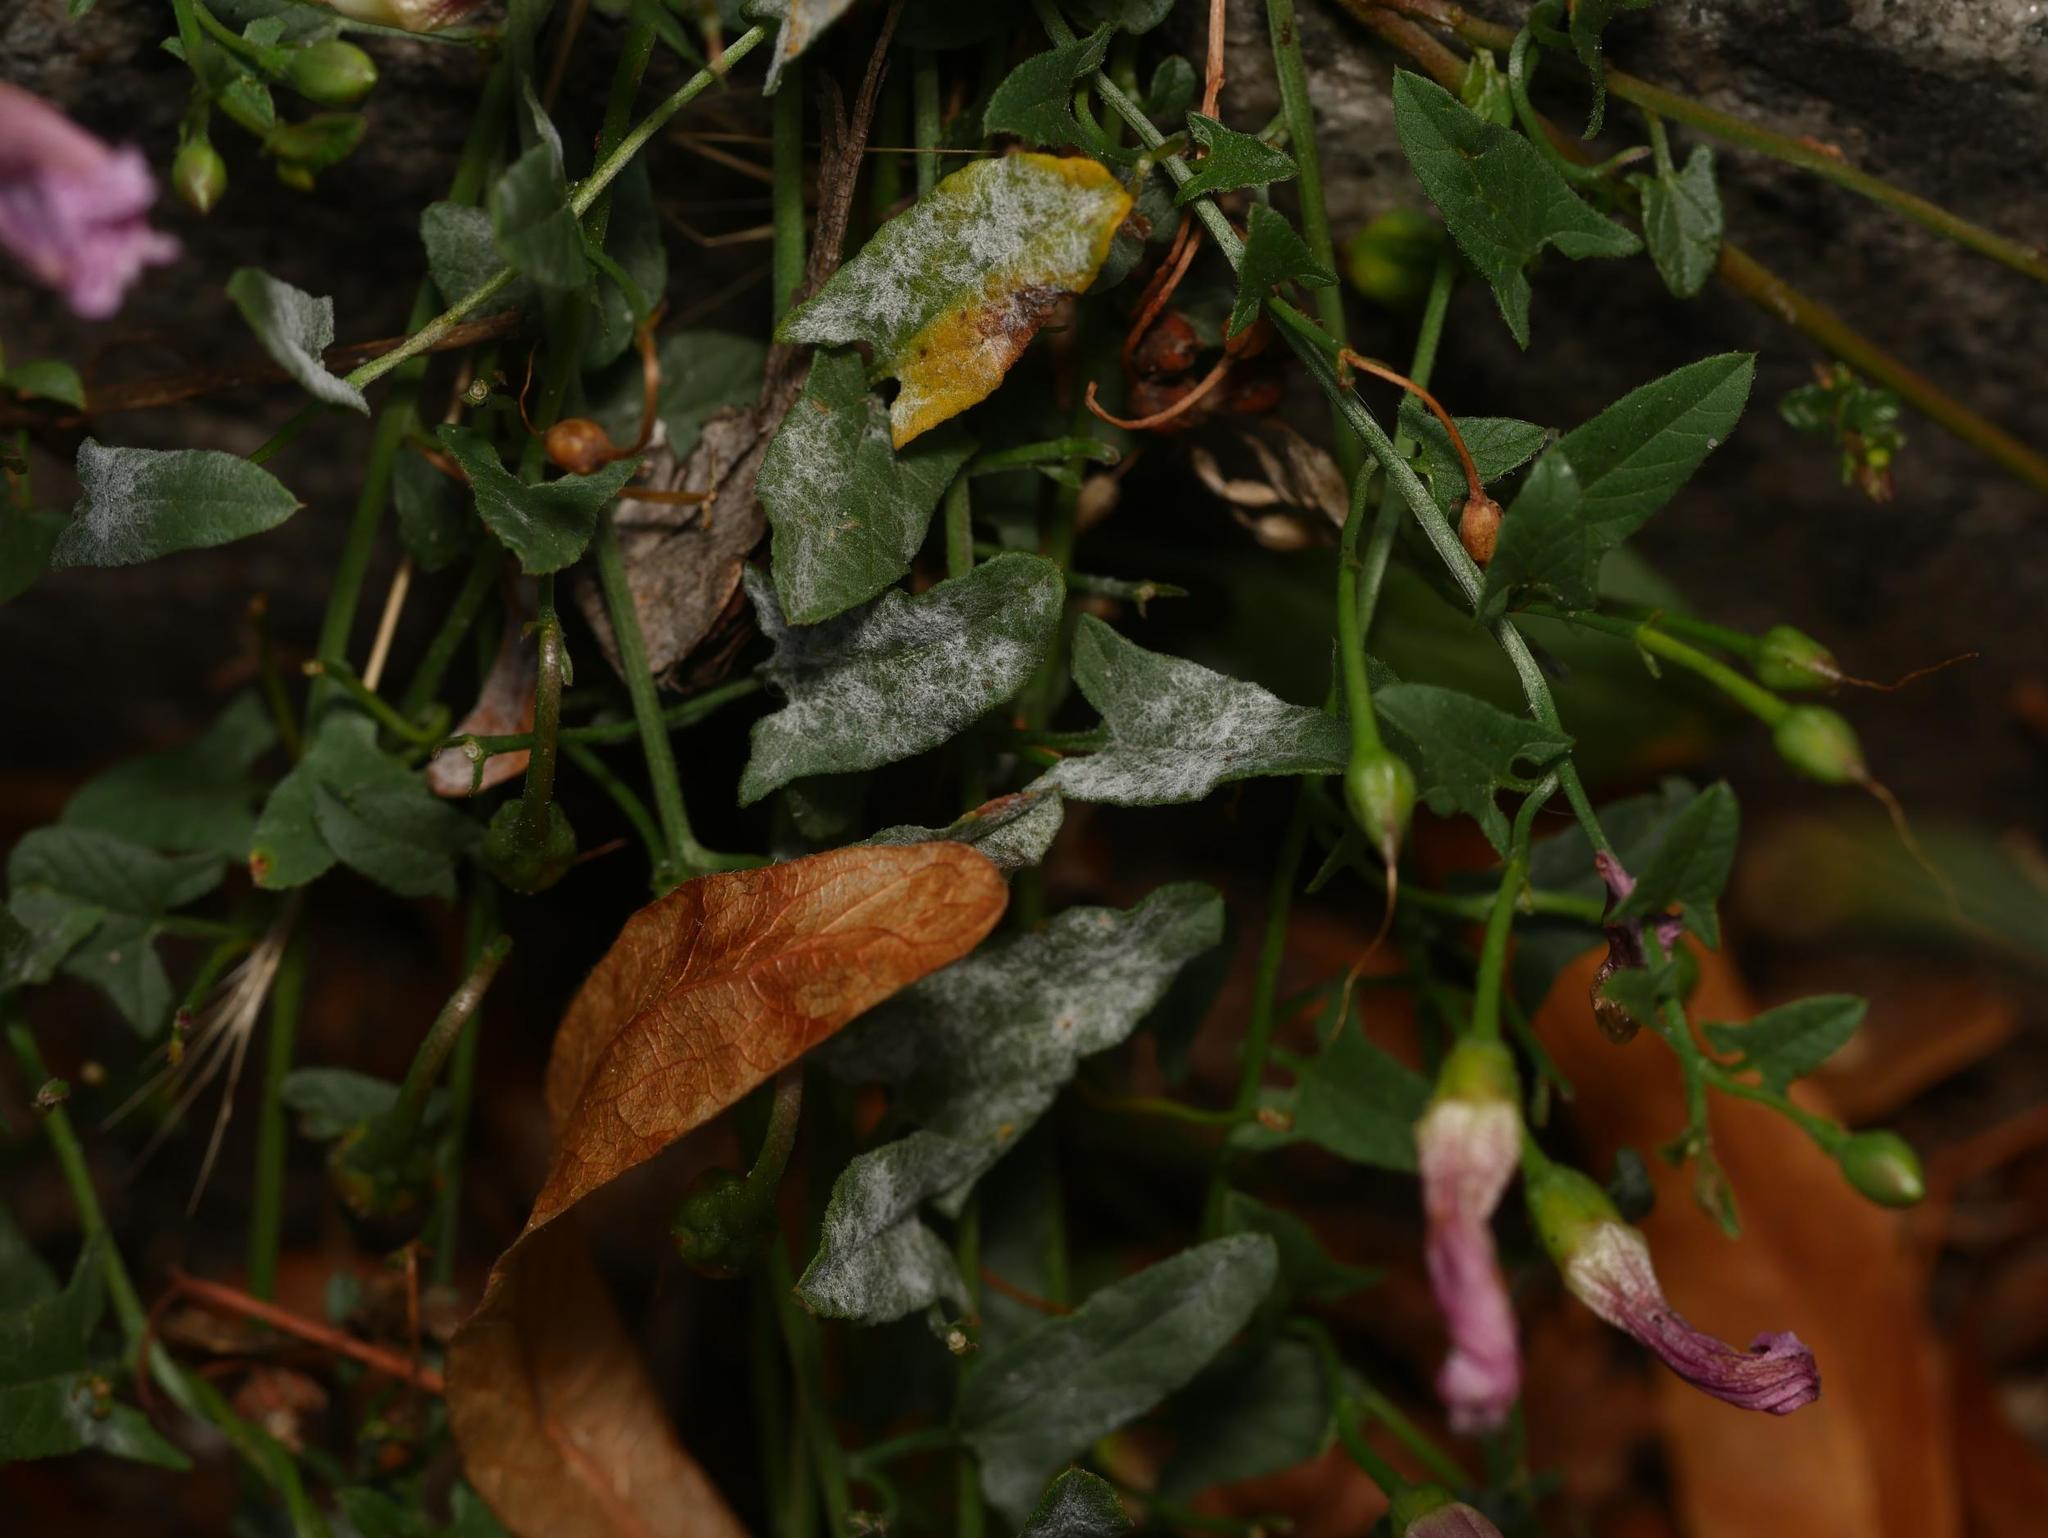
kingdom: Fungi
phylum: Ascomycota
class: Leotiomycetes
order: Helotiales
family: Erysiphaceae
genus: Erysiphe
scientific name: Erysiphe convolvuli
